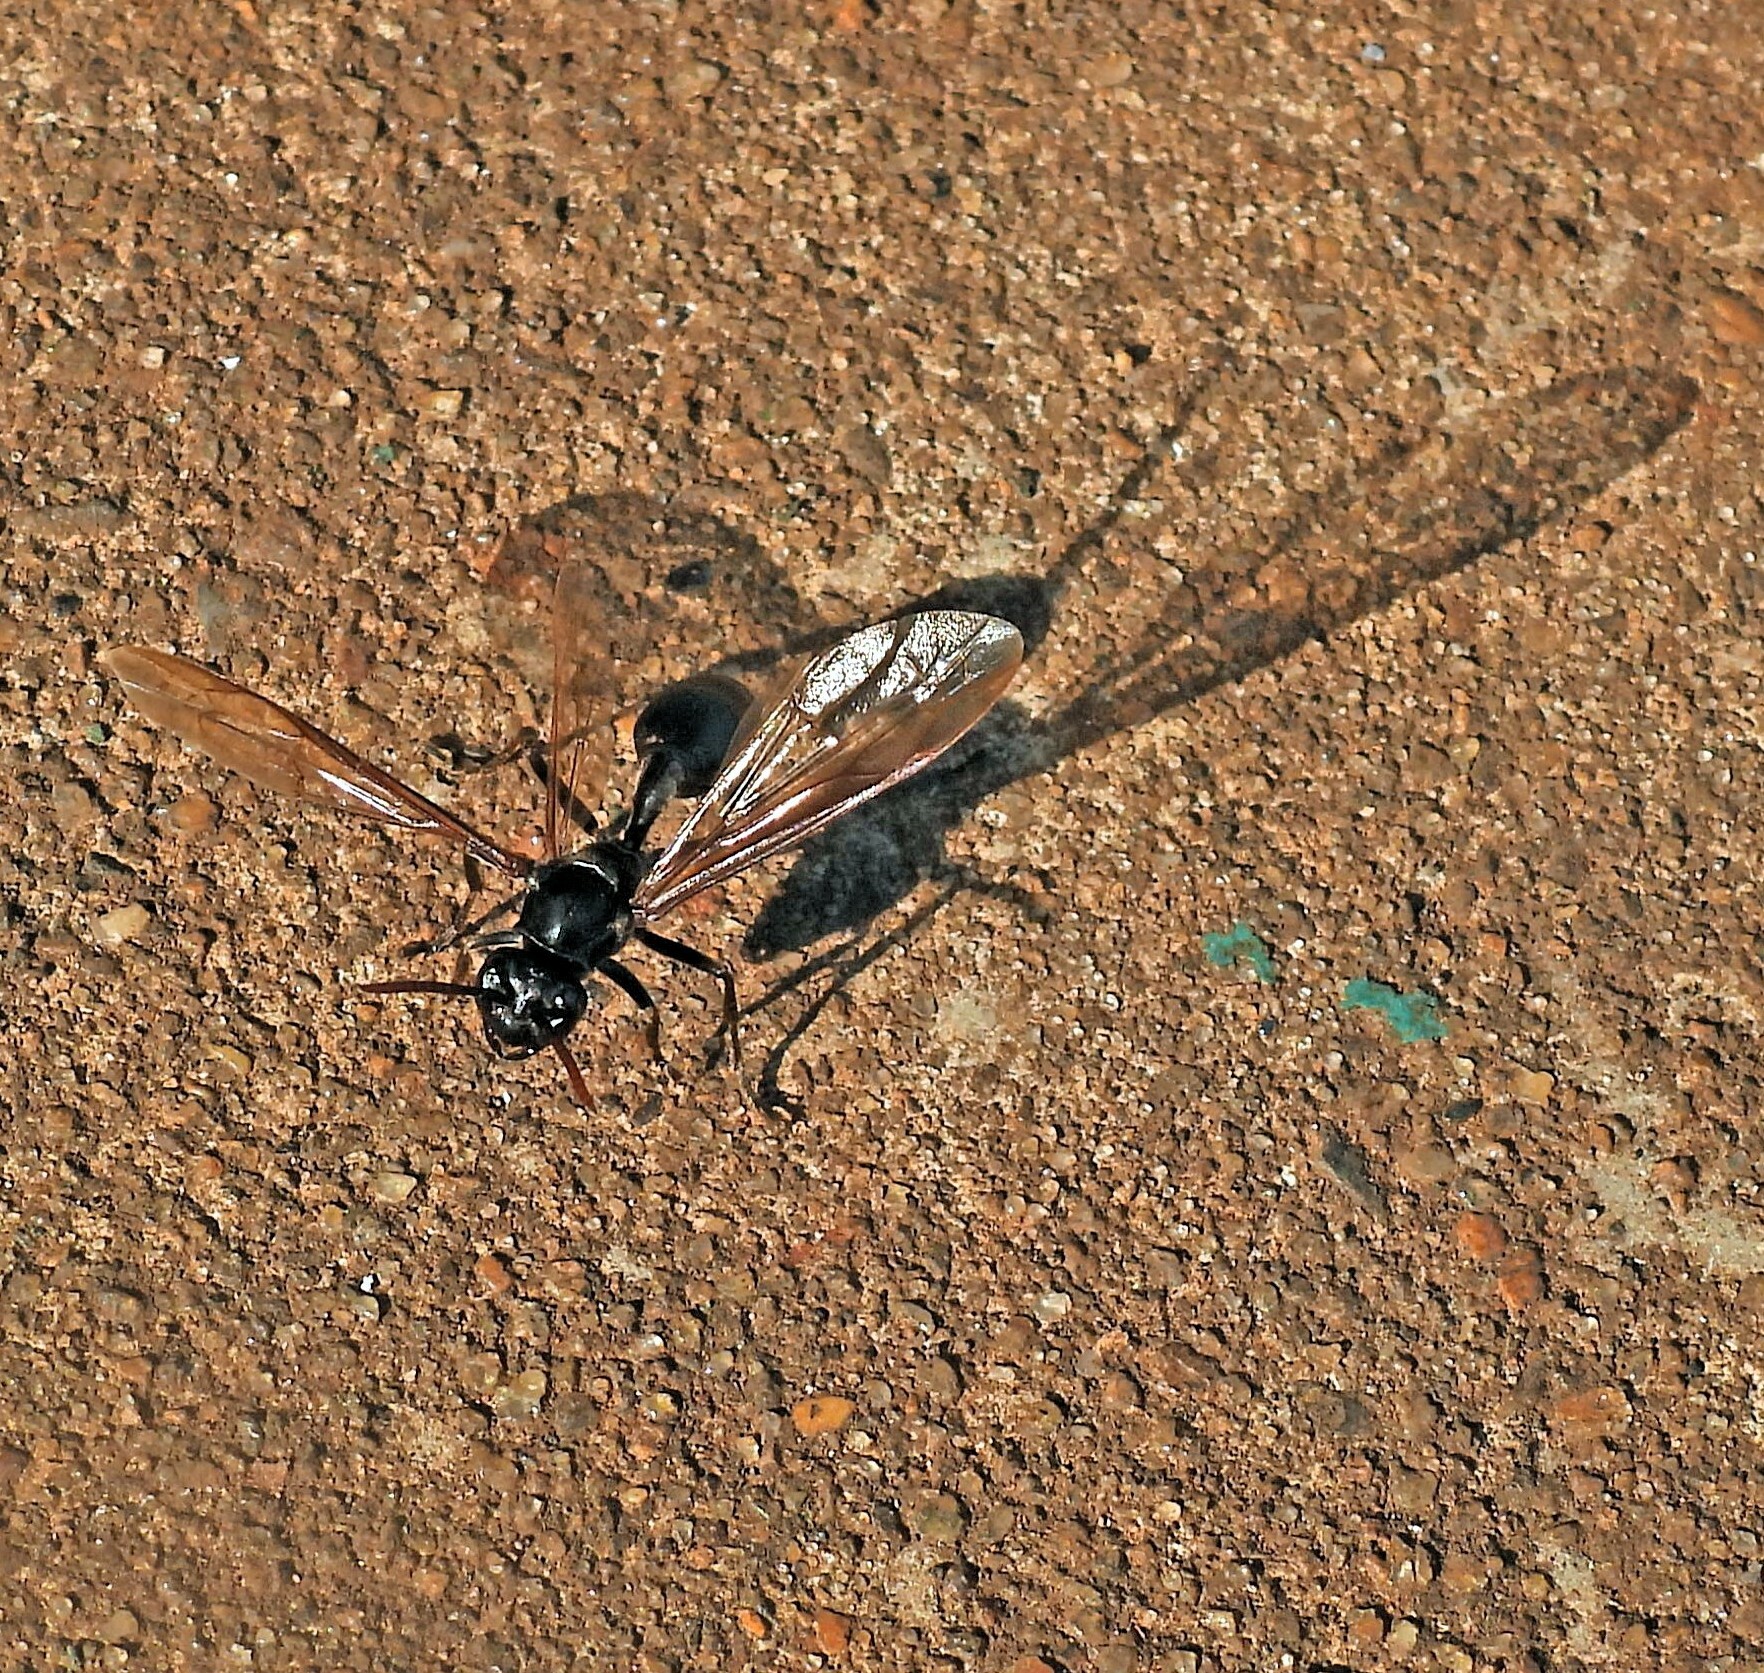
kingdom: Animalia
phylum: Arthropoda
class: Insecta
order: Hymenoptera
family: Vespidae
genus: Agelaia
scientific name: Agelaia angulata
